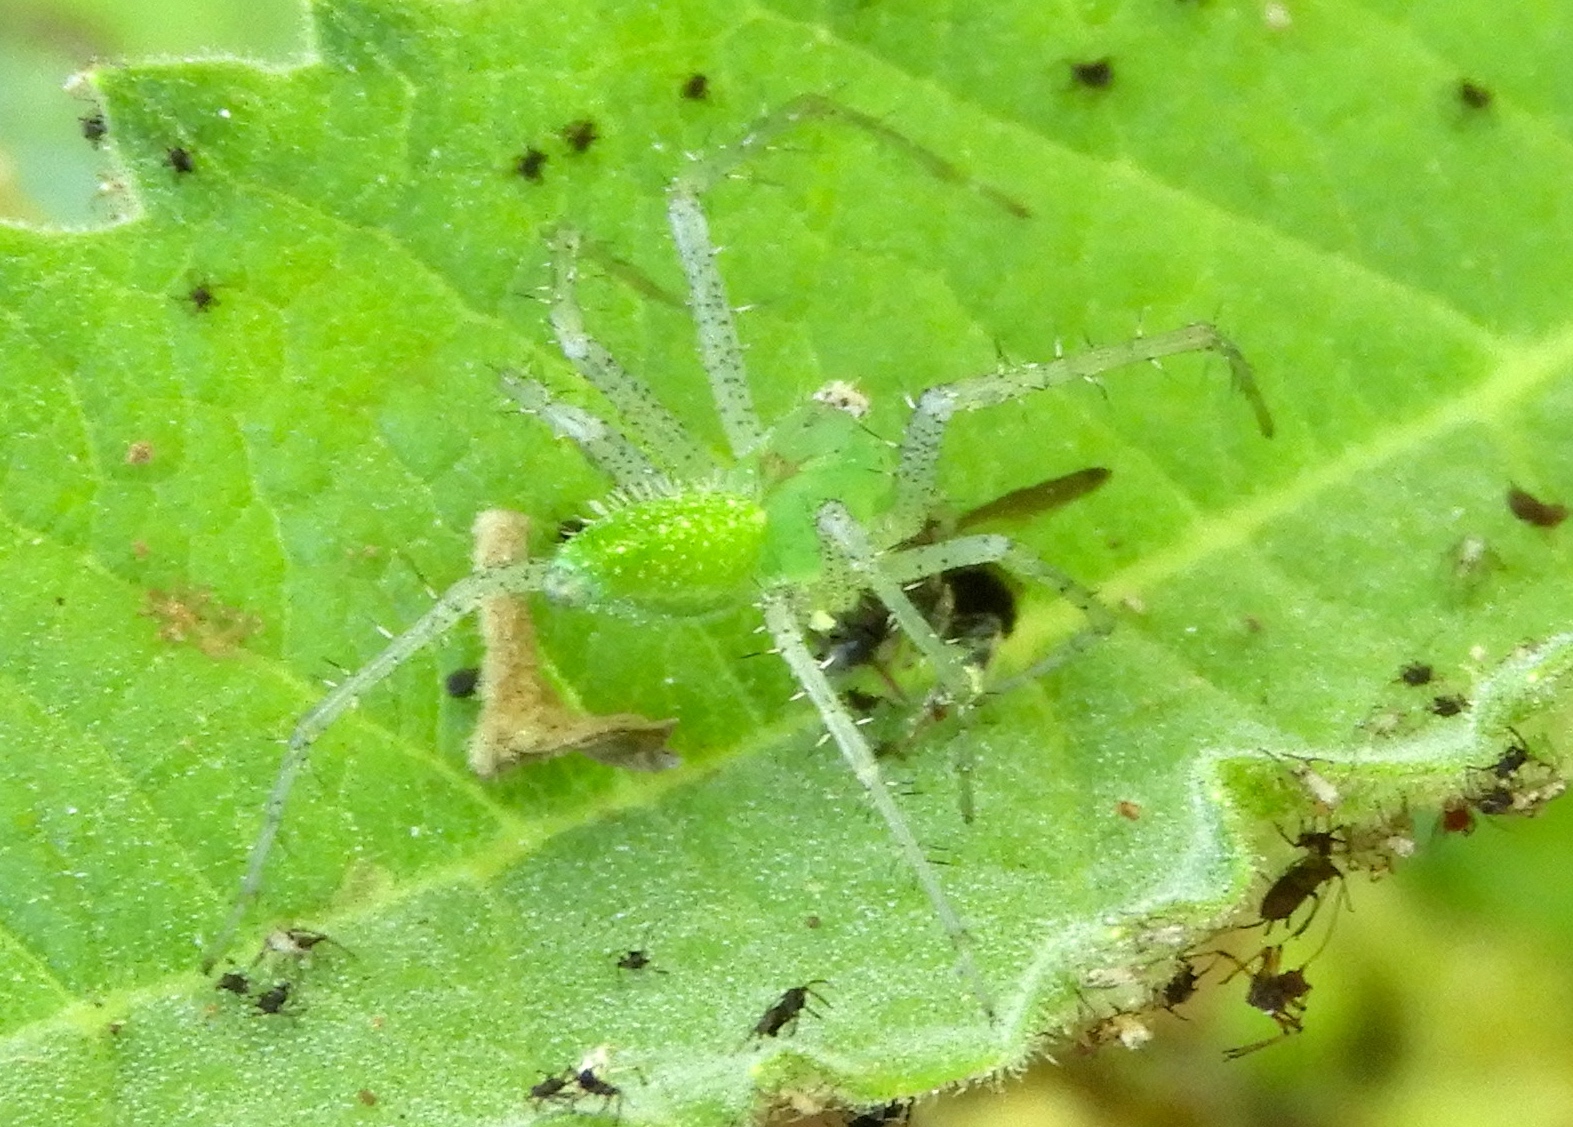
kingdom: Animalia
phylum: Arthropoda
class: Arachnida
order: Araneae
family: Oxyopidae
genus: Peucetia
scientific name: Peucetia
